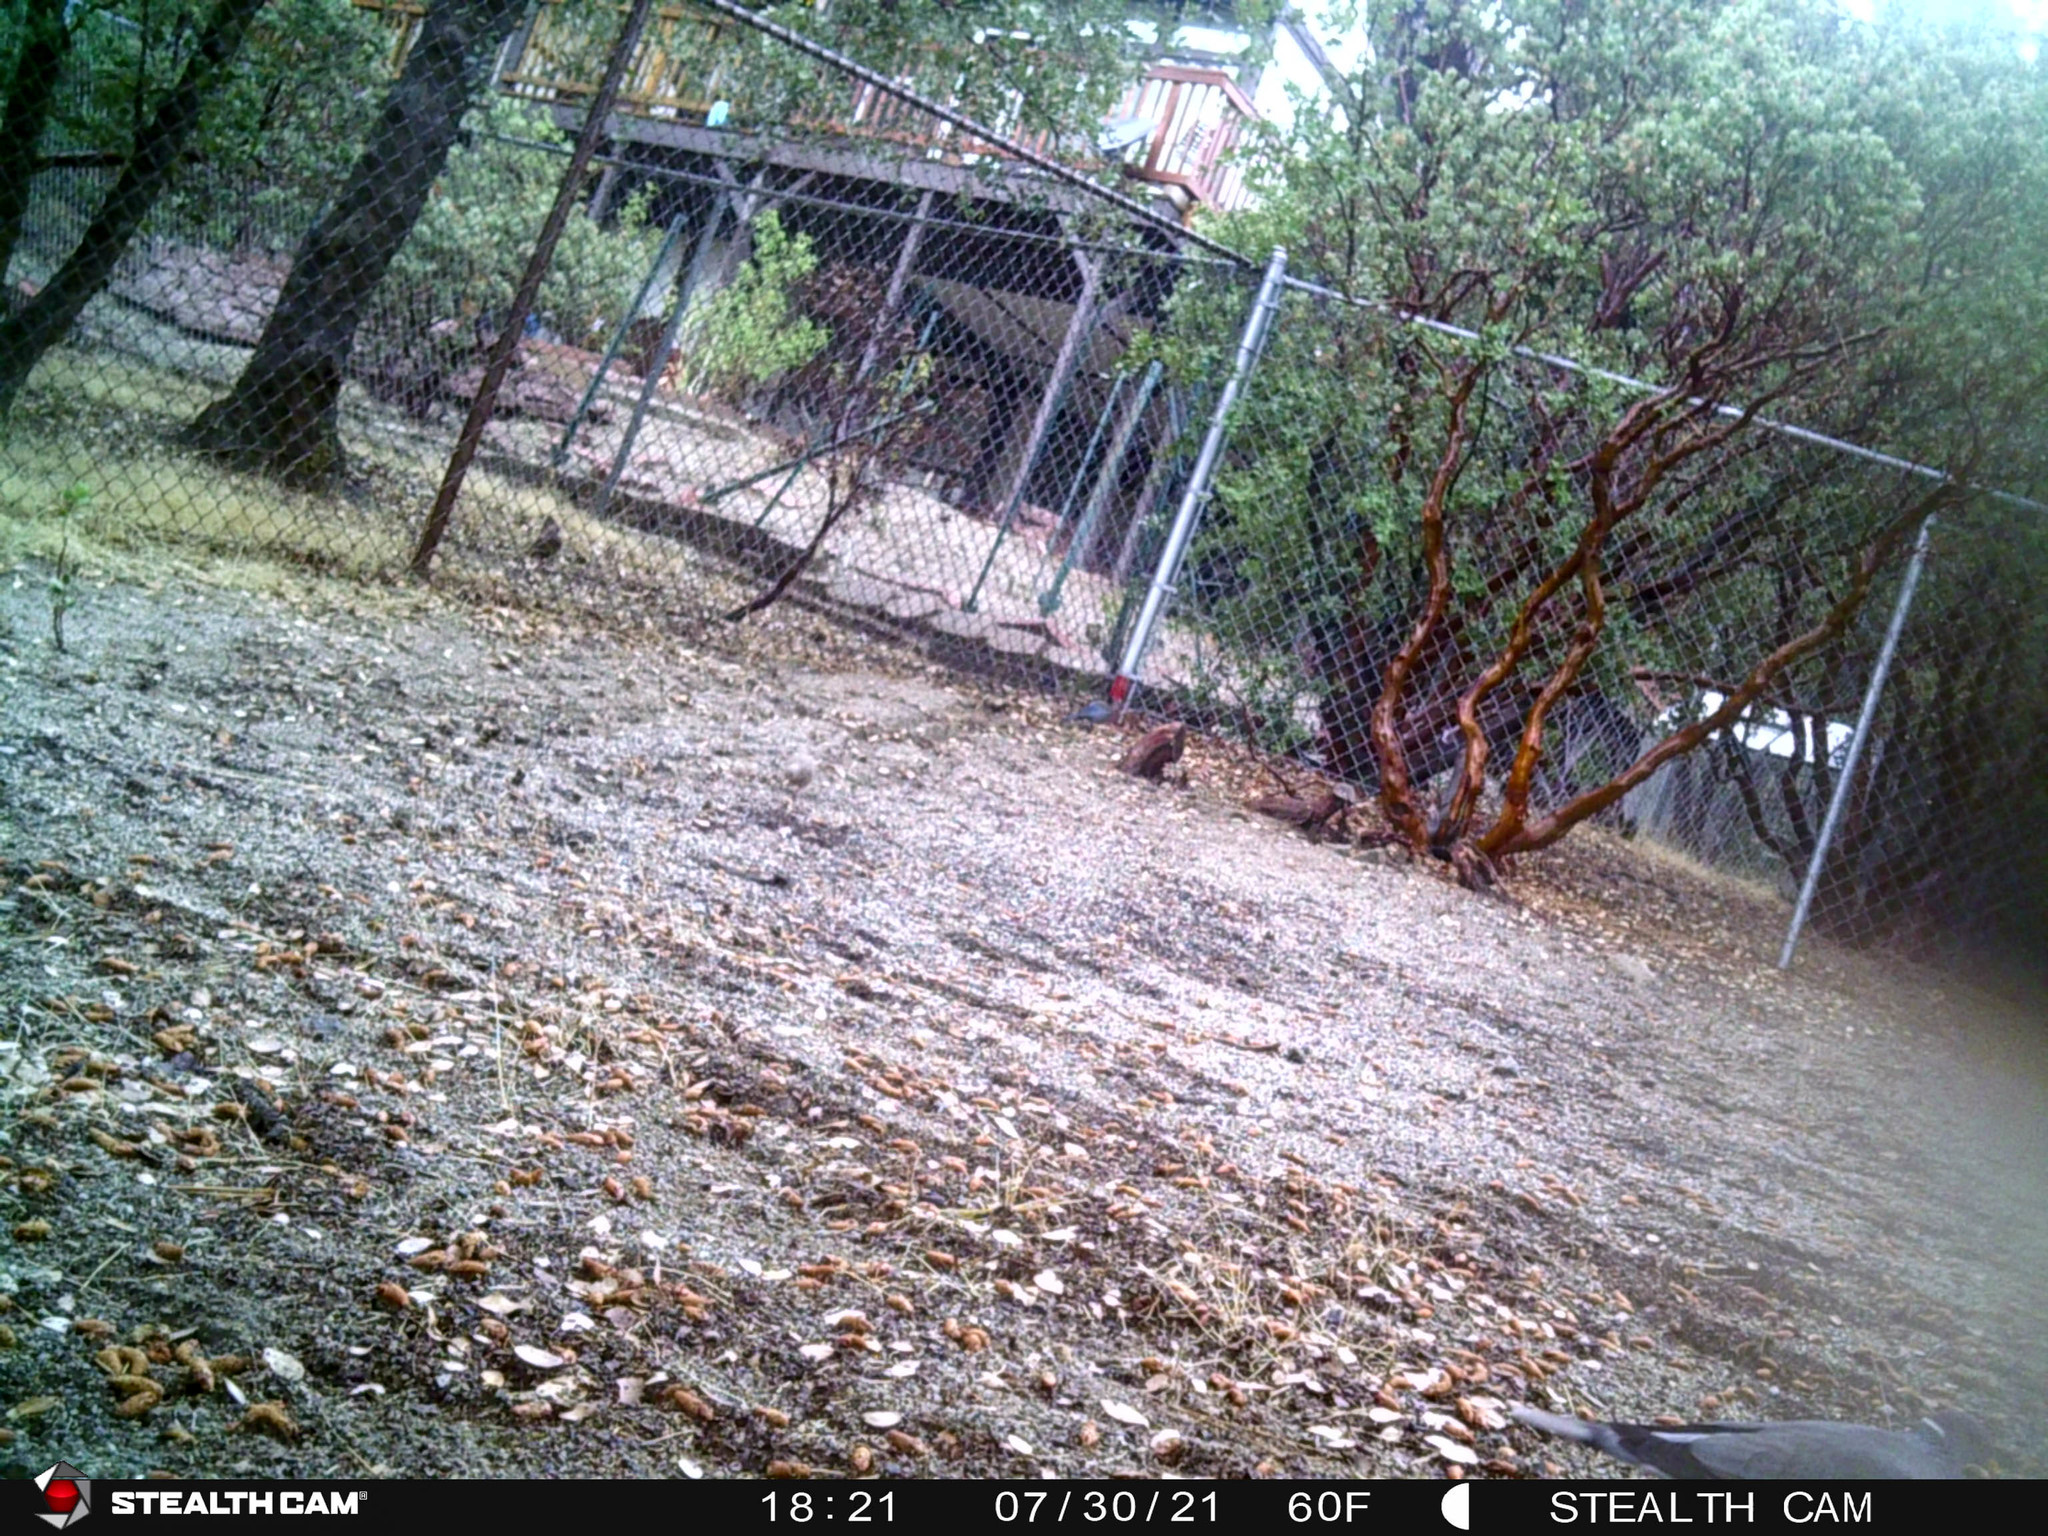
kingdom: Animalia
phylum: Chordata
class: Aves
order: Passeriformes
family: Corvidae
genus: Cyanocitta
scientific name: Cyanocitta stelleri
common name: Steller's jay
